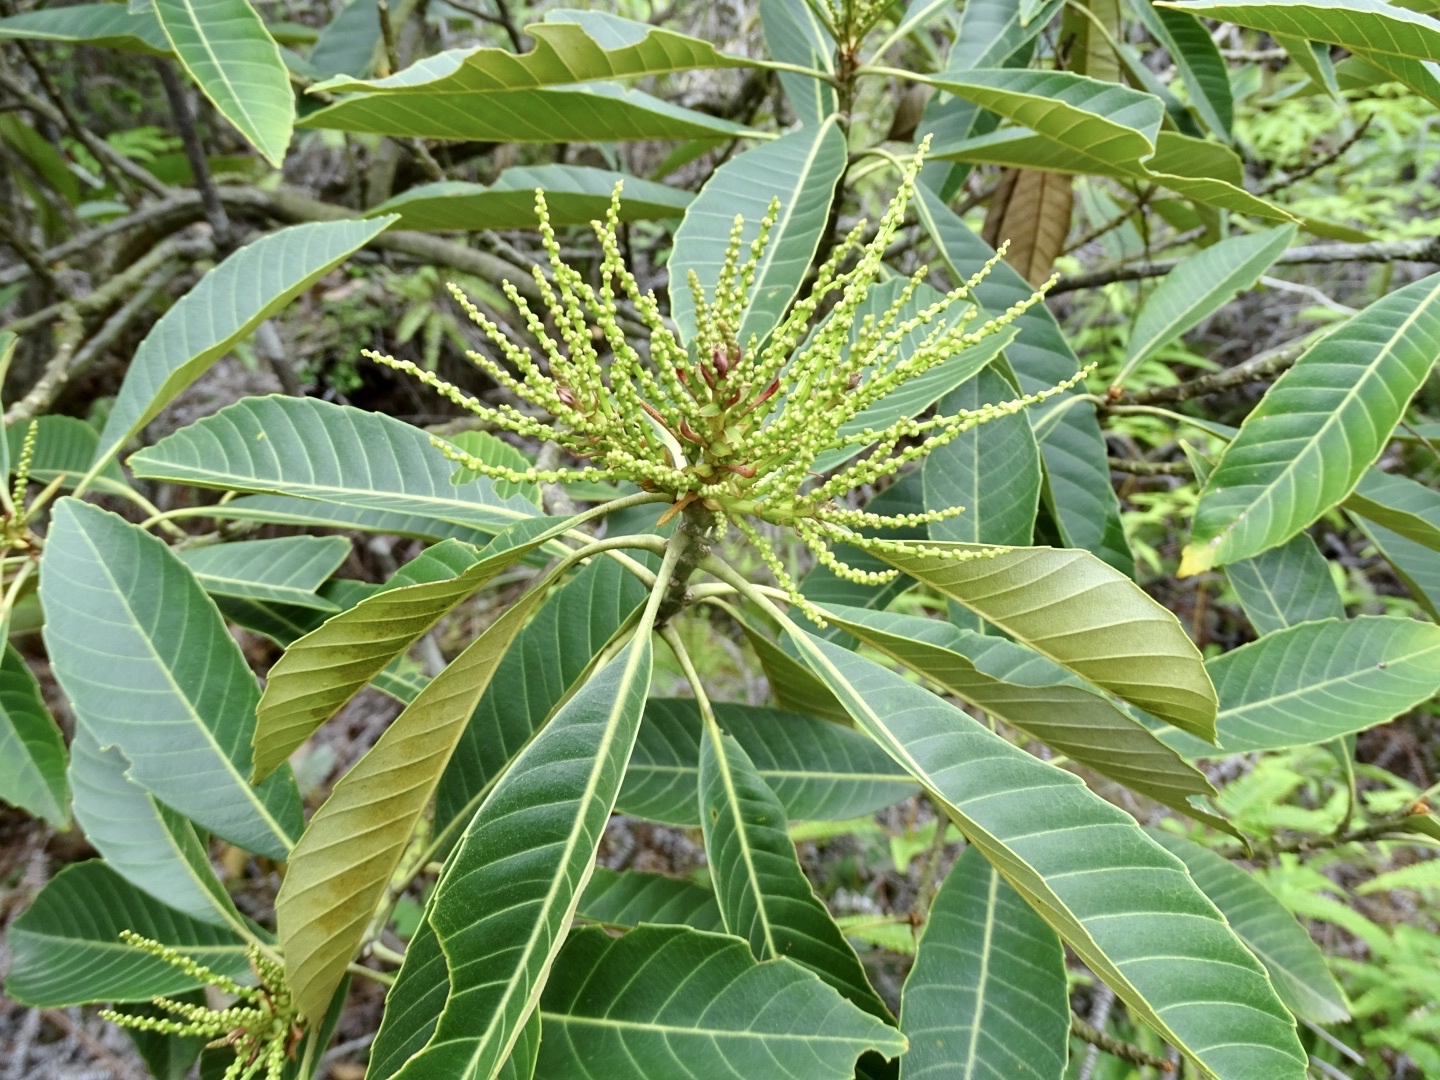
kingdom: Plantae
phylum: Tracheophyta
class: Magnoliopsida
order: Fagales
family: Fagaceae
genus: Castanopsis
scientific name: Castanopsis fissa
